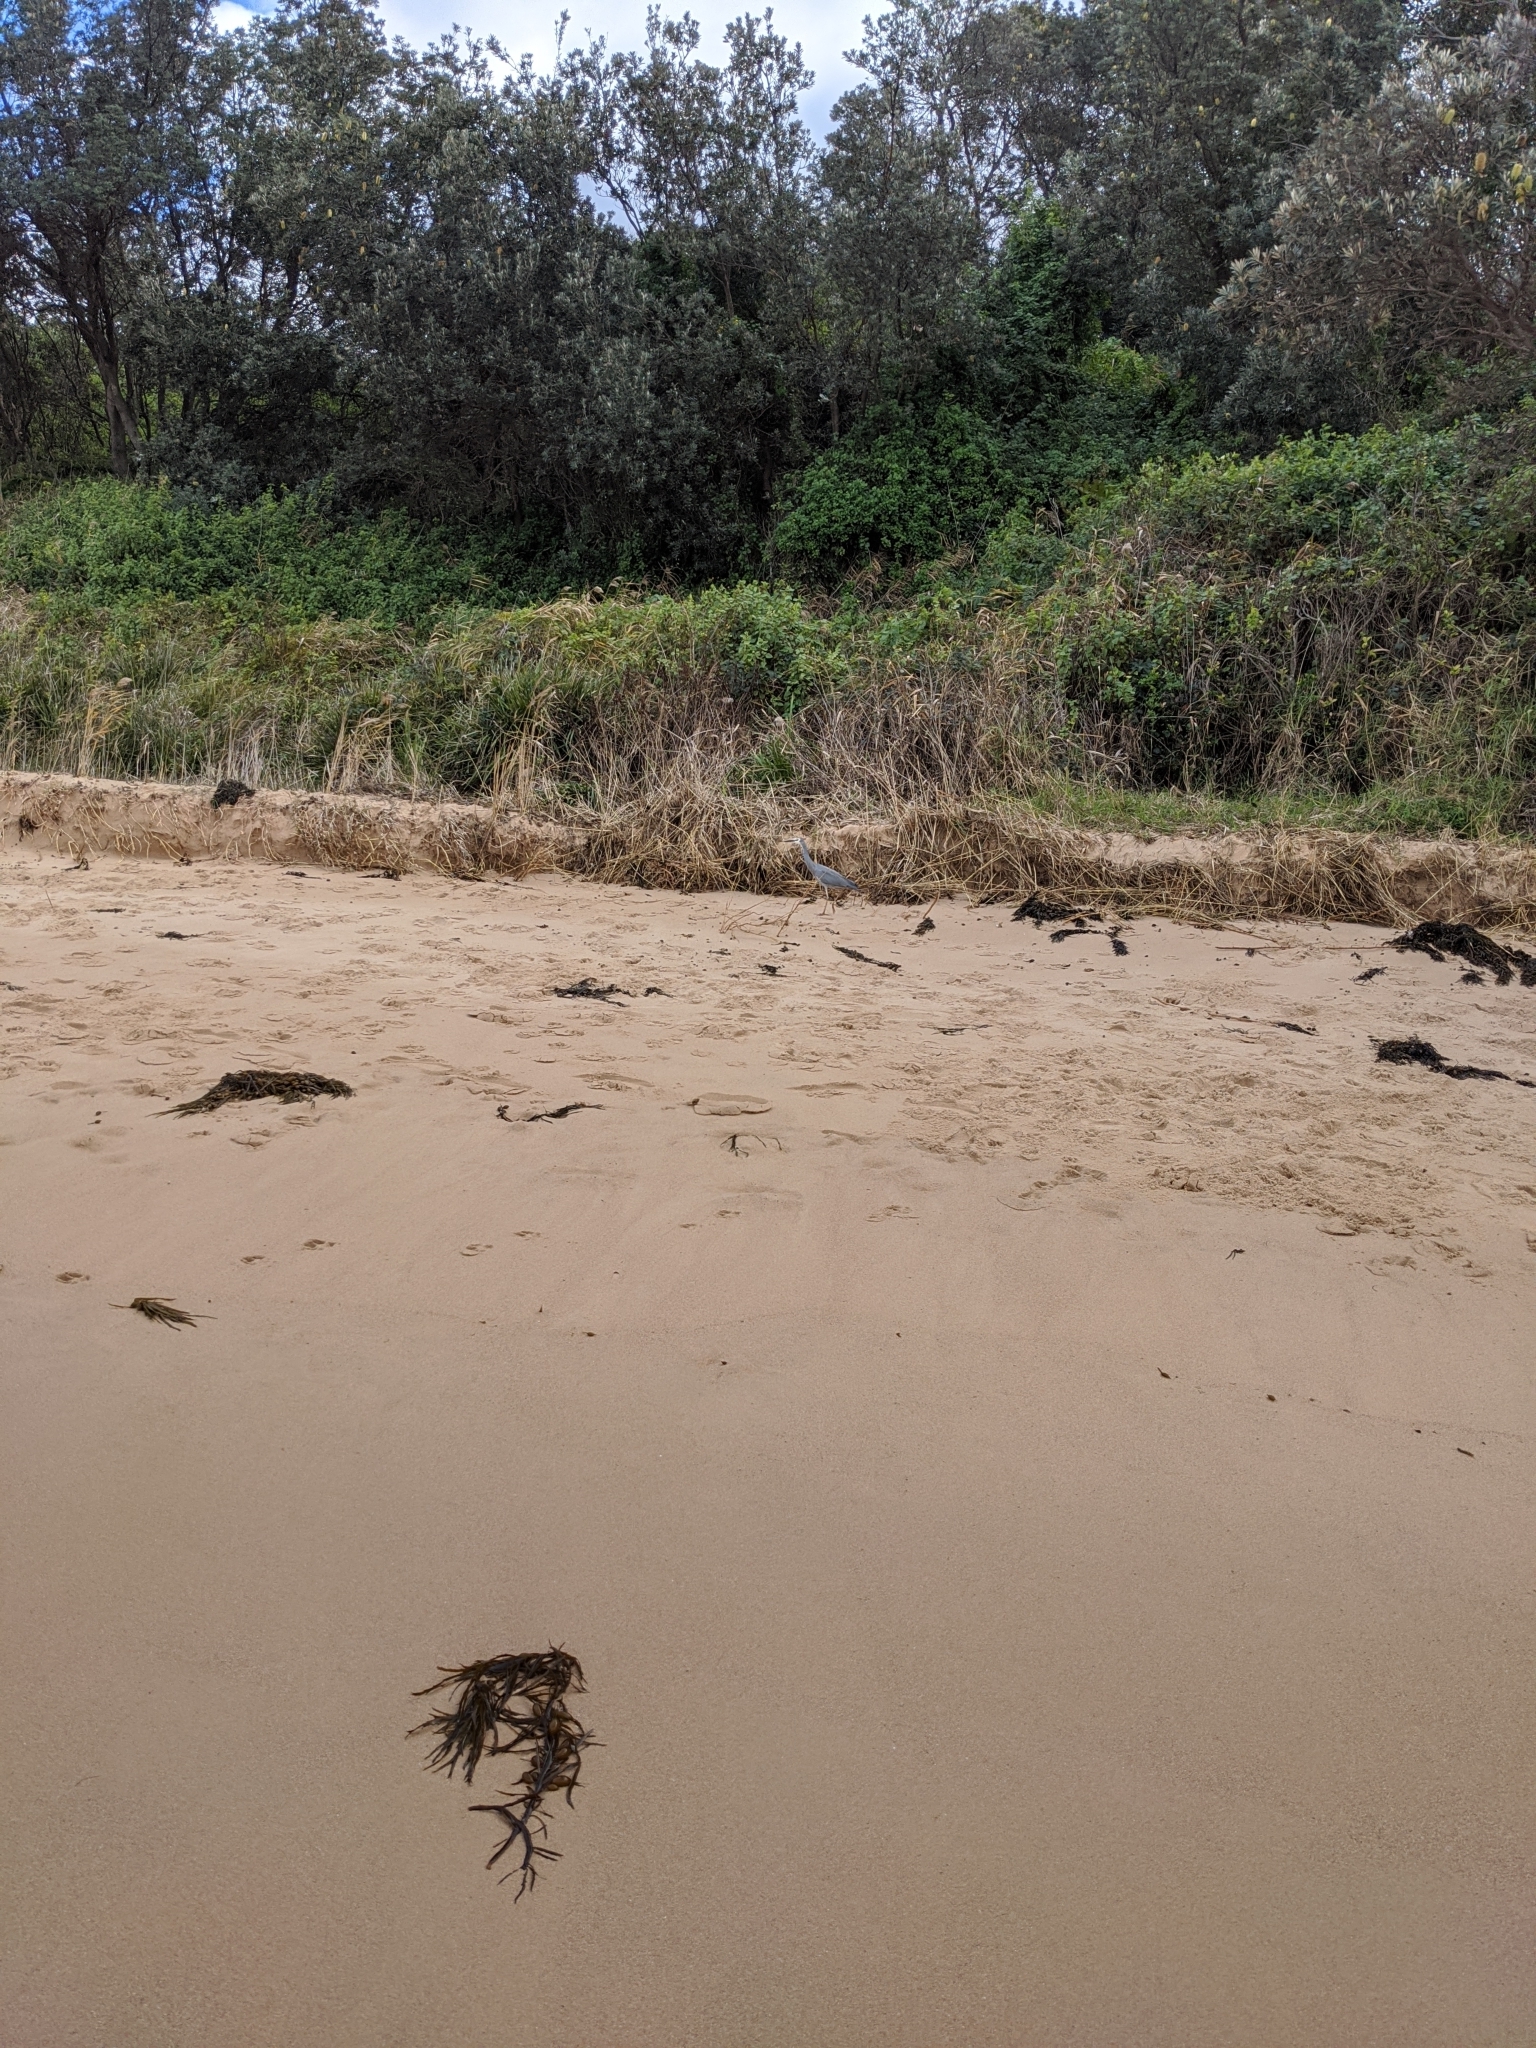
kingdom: Animalia
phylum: Chordata
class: Aves
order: Pelecaniformes
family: Ardeidae
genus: Egretta
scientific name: Egretta novaehollandiae
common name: White-faced heron
